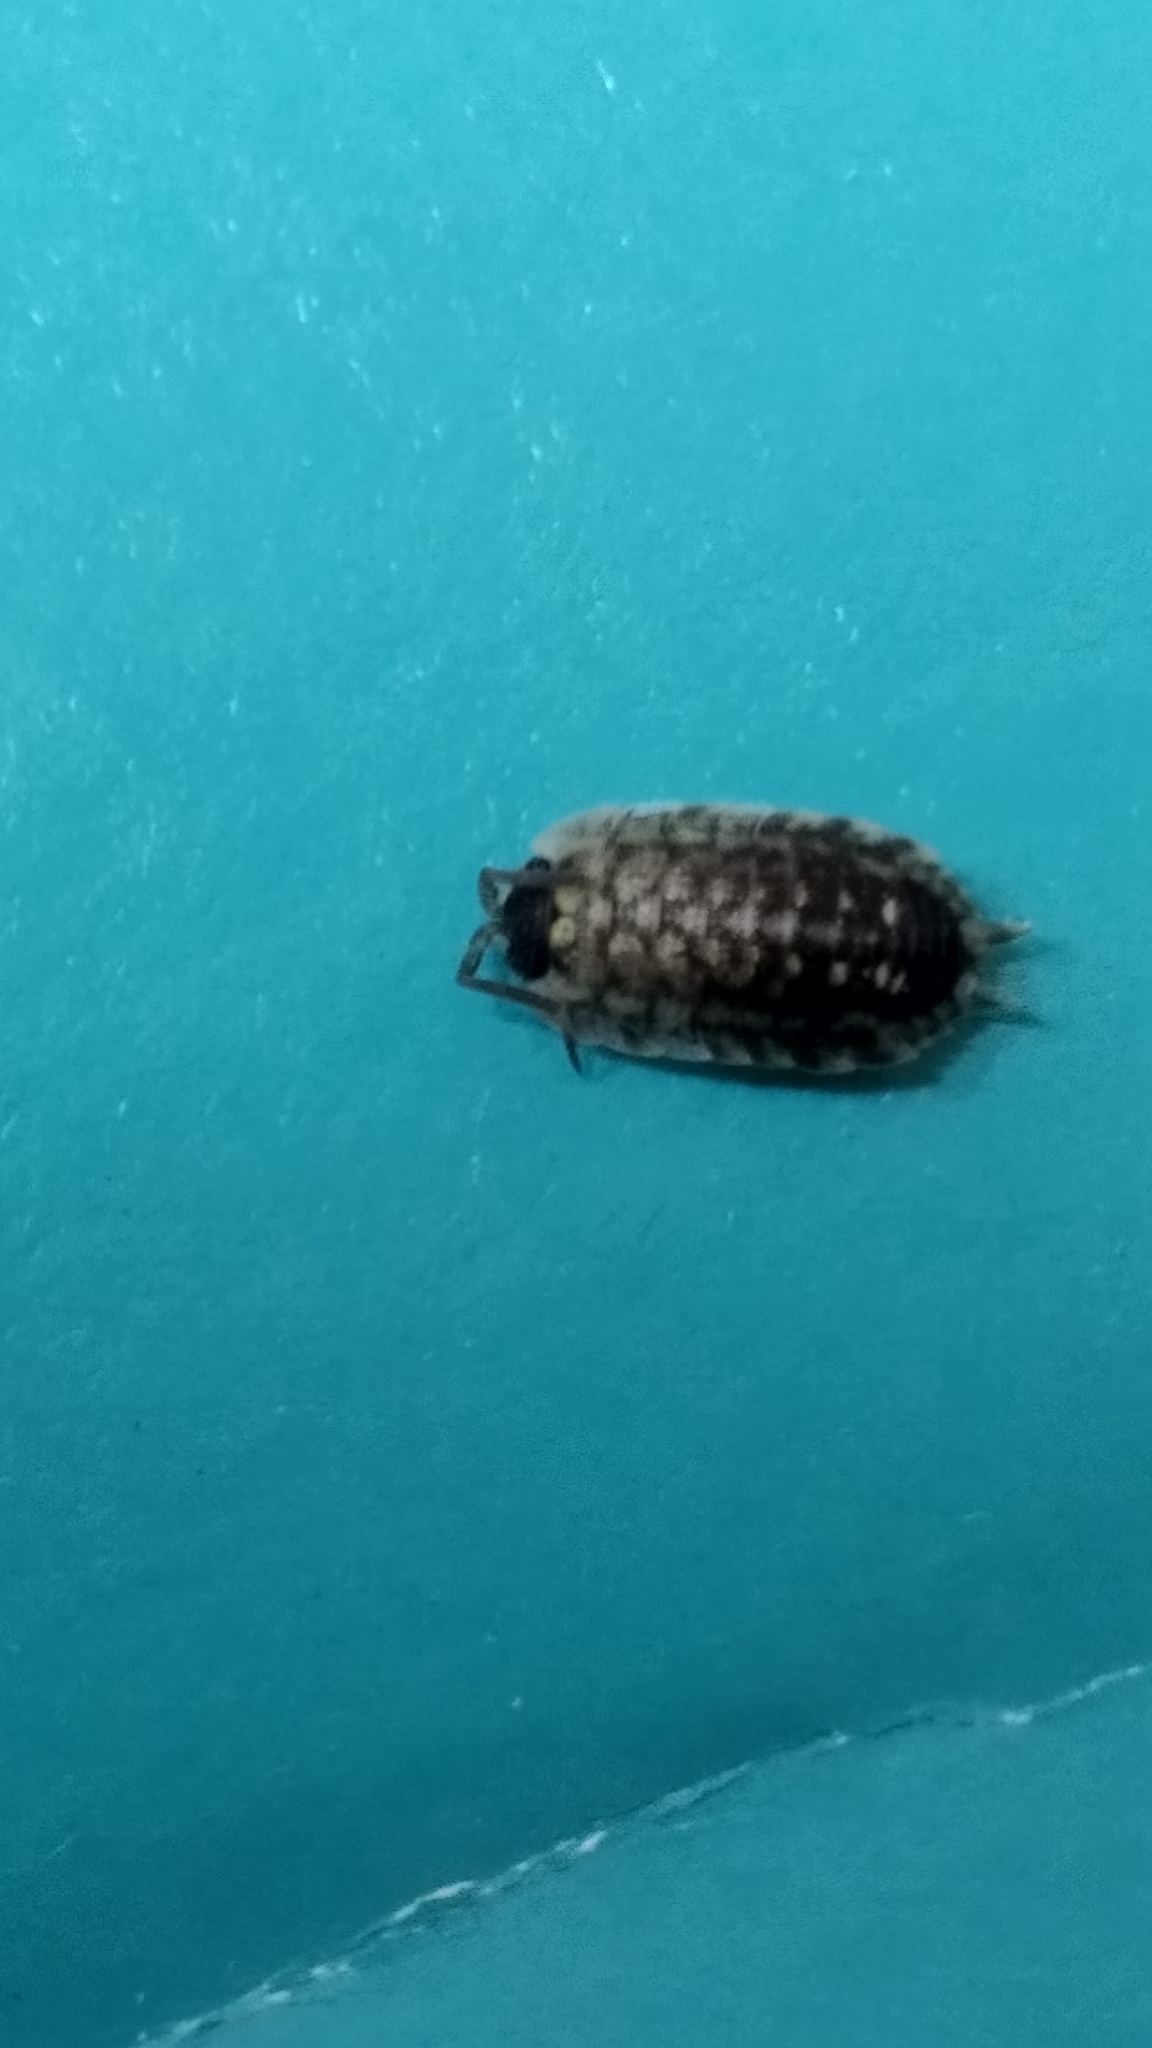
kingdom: Animalia
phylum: Arthropoda
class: Malacostraca
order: Isopoda
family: Porcellionidae
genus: Porcellio
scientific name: Porcellio spinicornis
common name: Painted woodlouse
